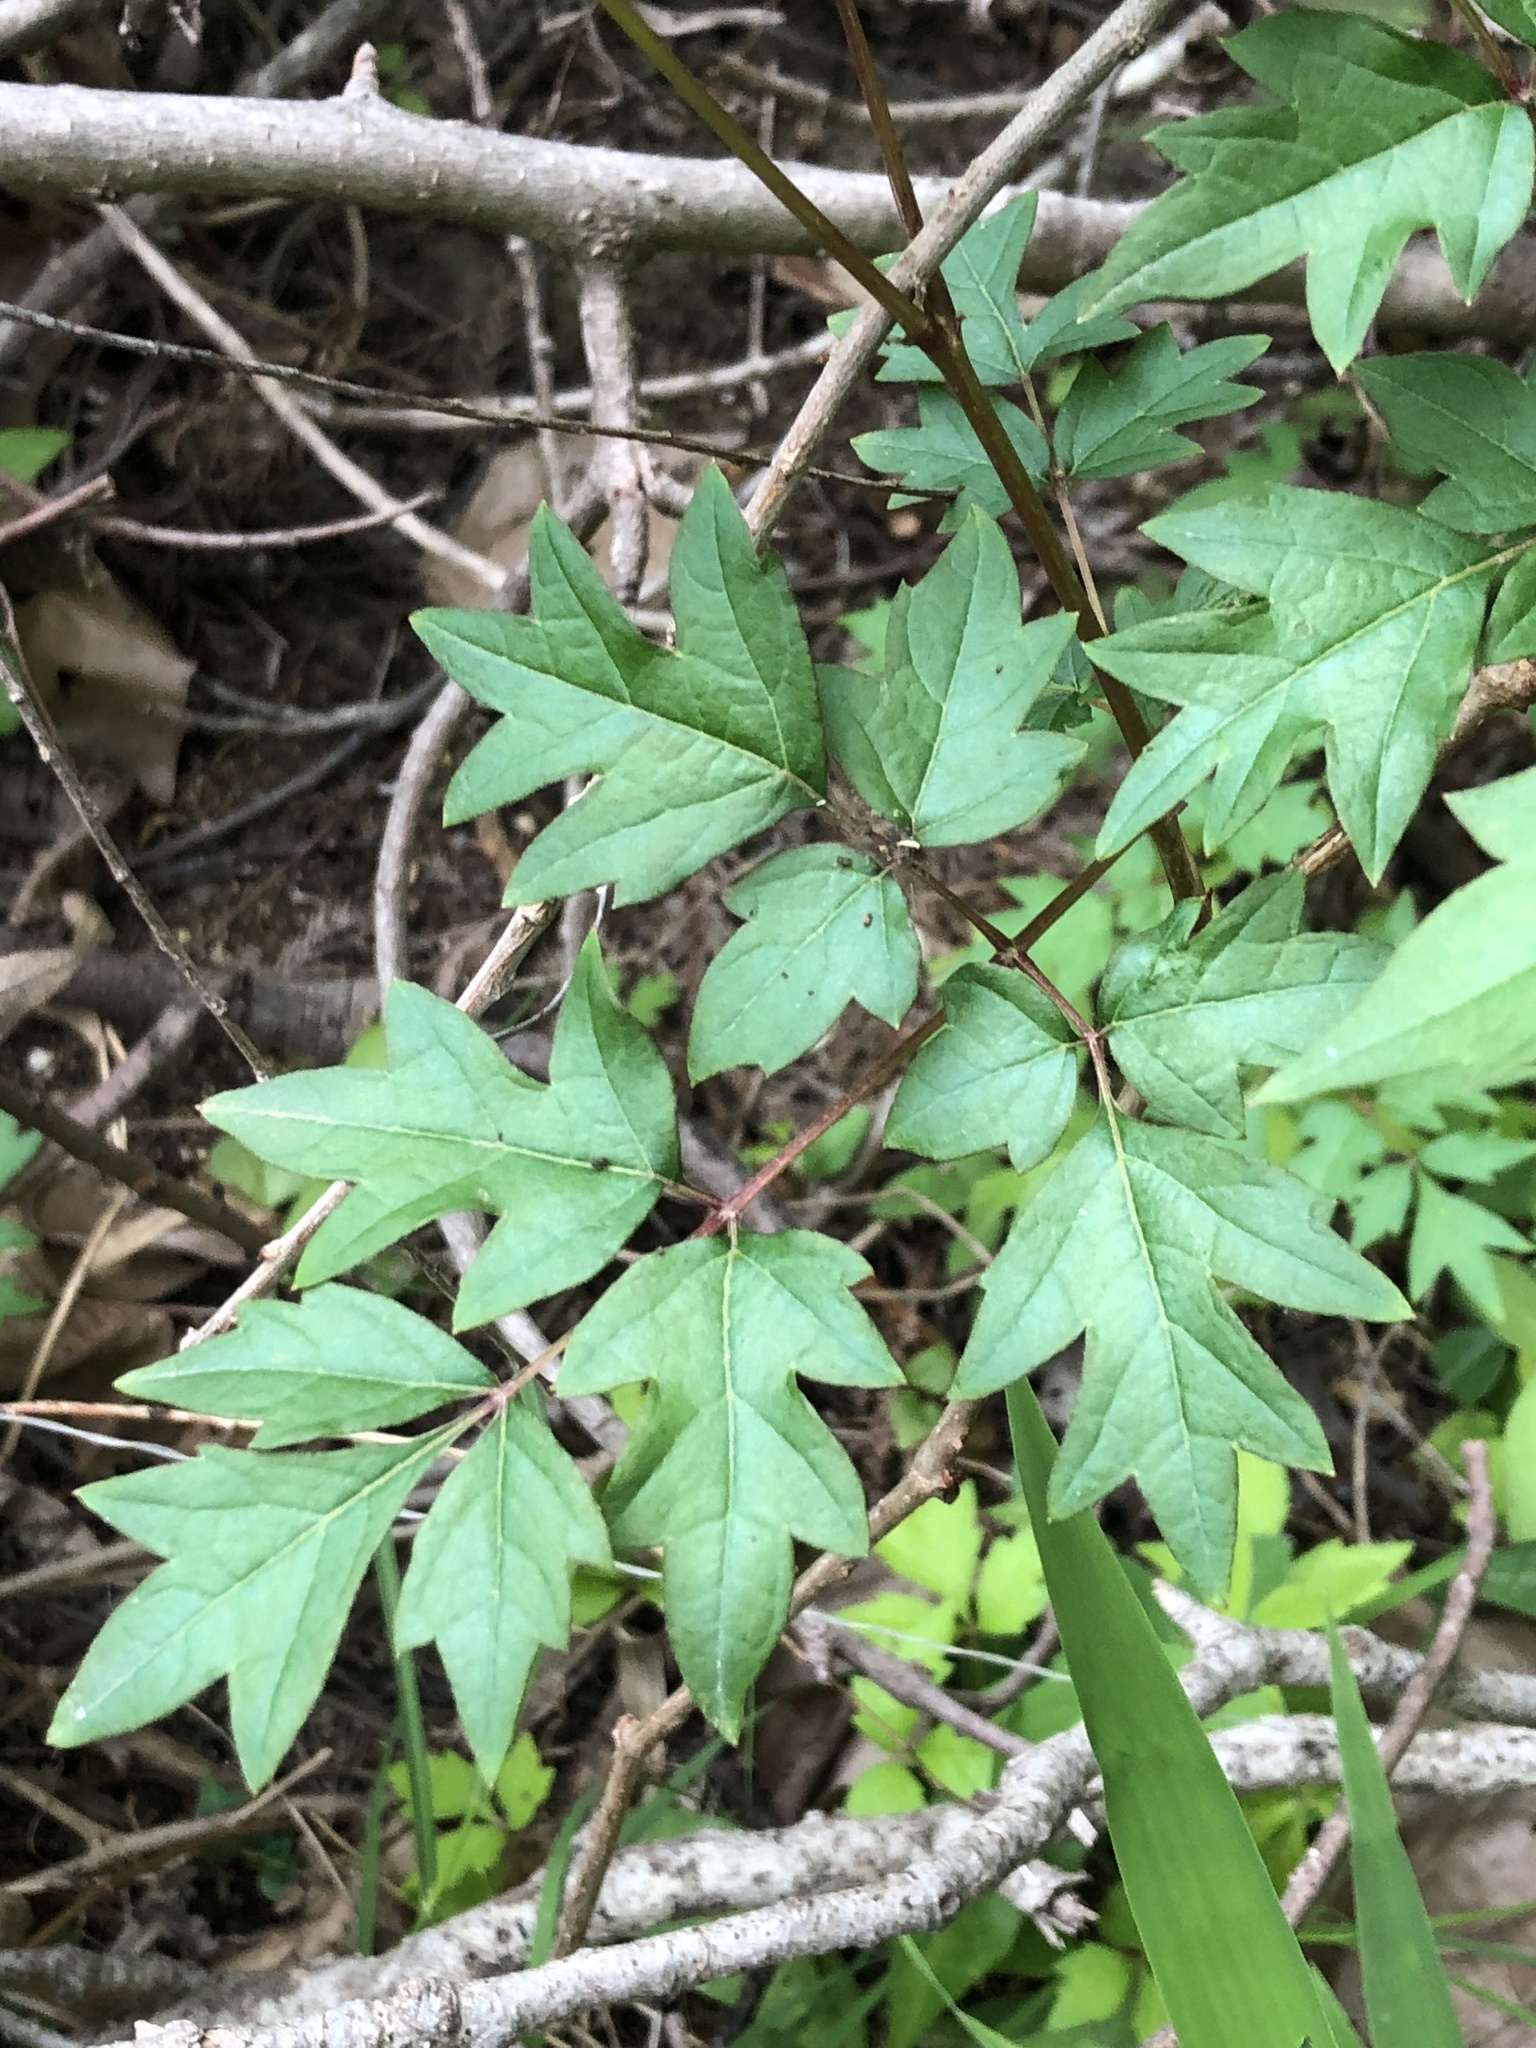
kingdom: Plantae
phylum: Tracheophyta
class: Magnoliopsida
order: Vitales
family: Vitaceae
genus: Nekemias
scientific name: Nekemias arborea
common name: Peppervine
